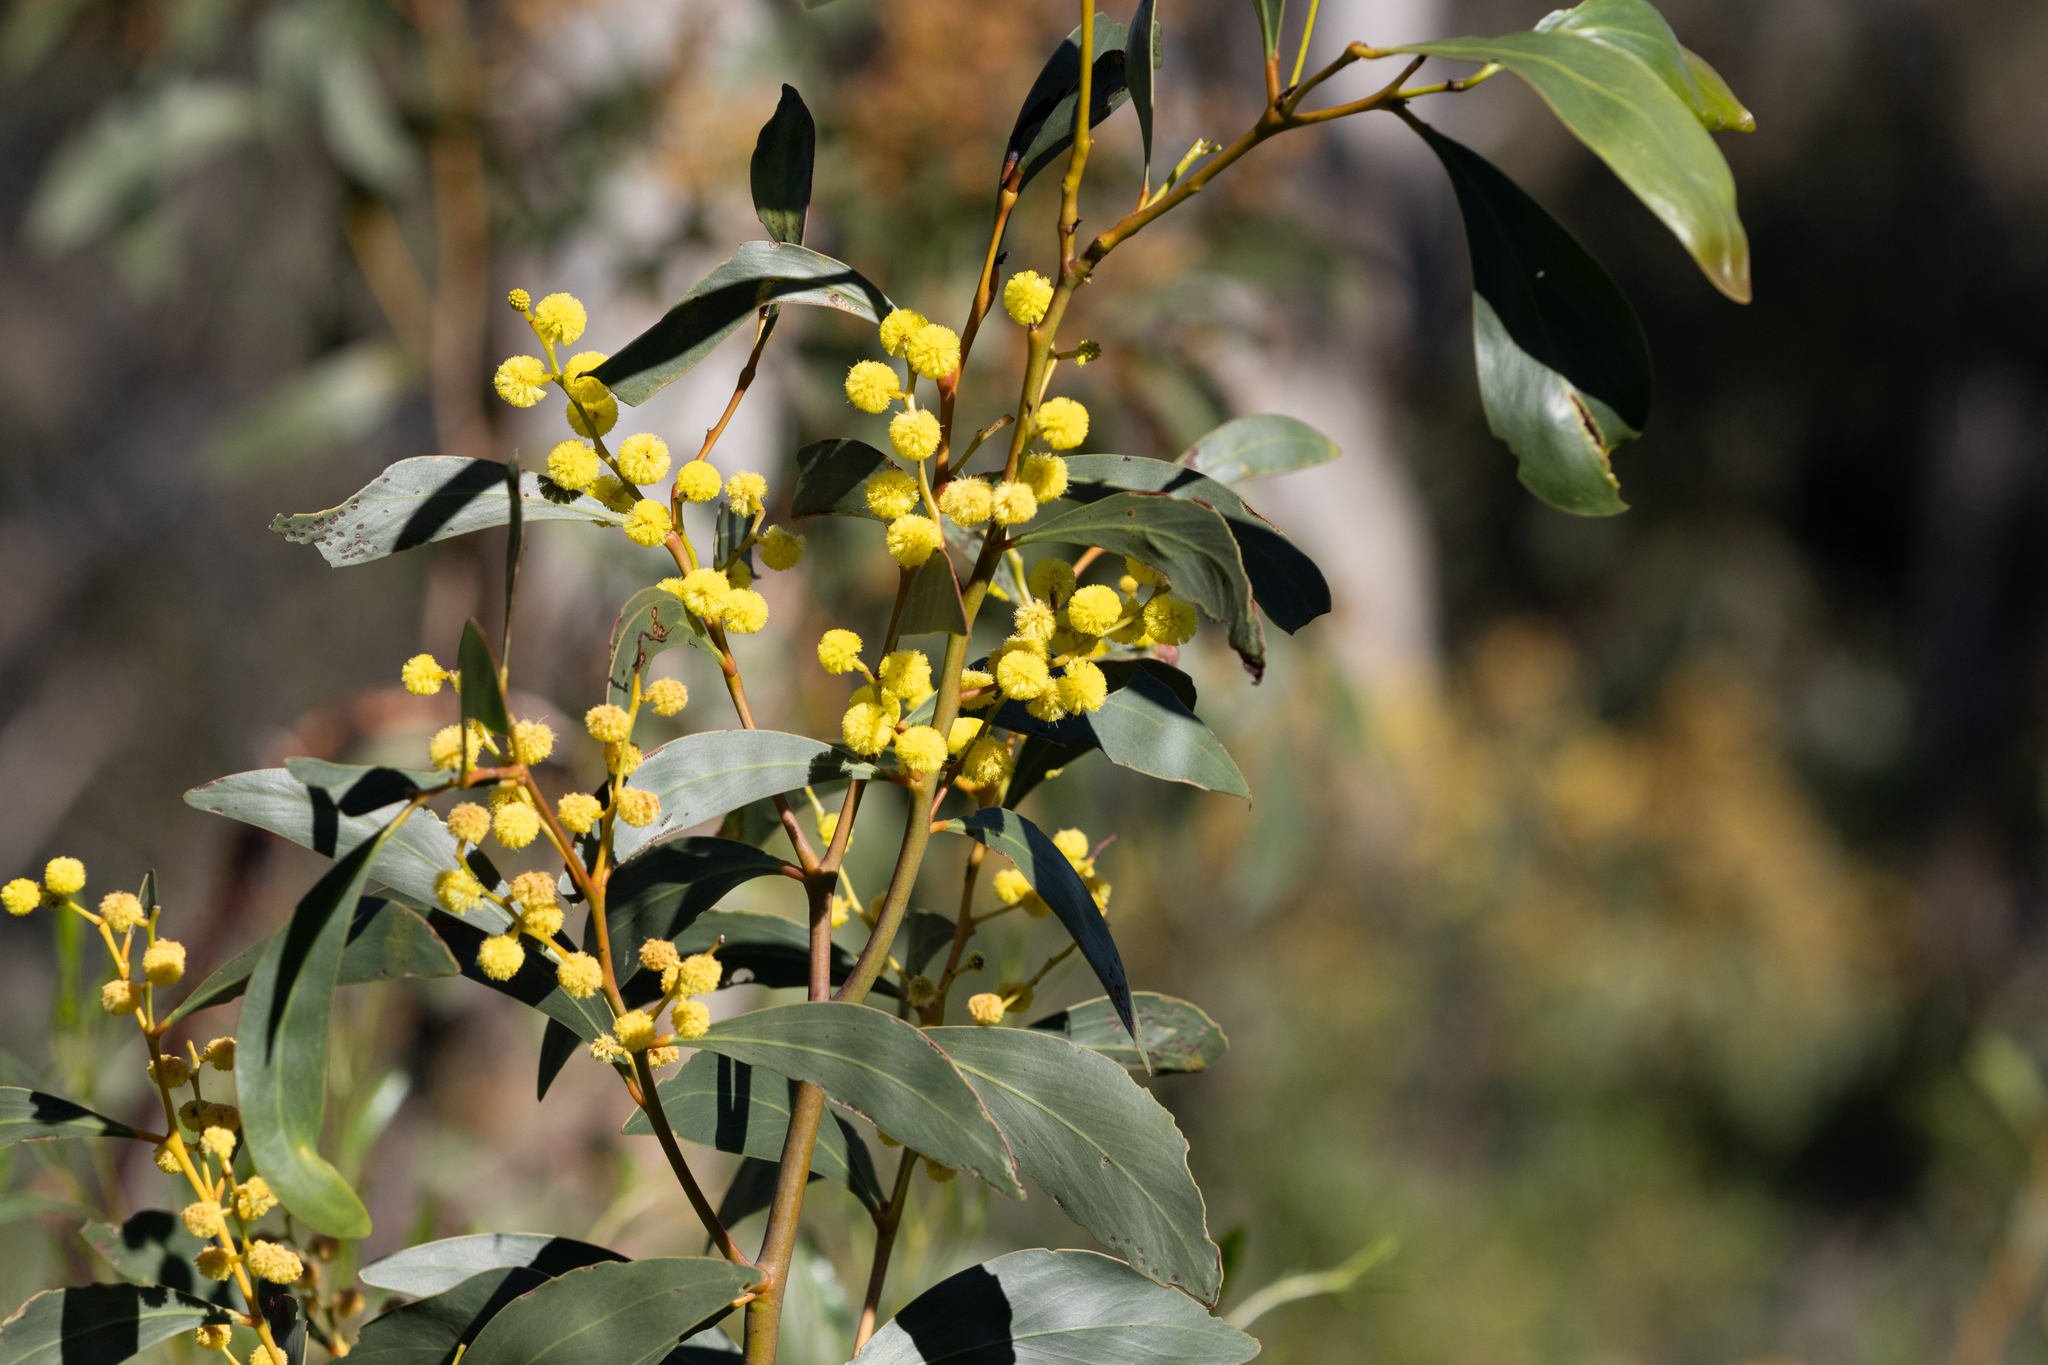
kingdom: Plantae
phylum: Tracheophyta
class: Magnoliopsida
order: Fabales
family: Fabaceae
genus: Acacia
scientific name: Acacia pycnantha
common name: Golden wattle
